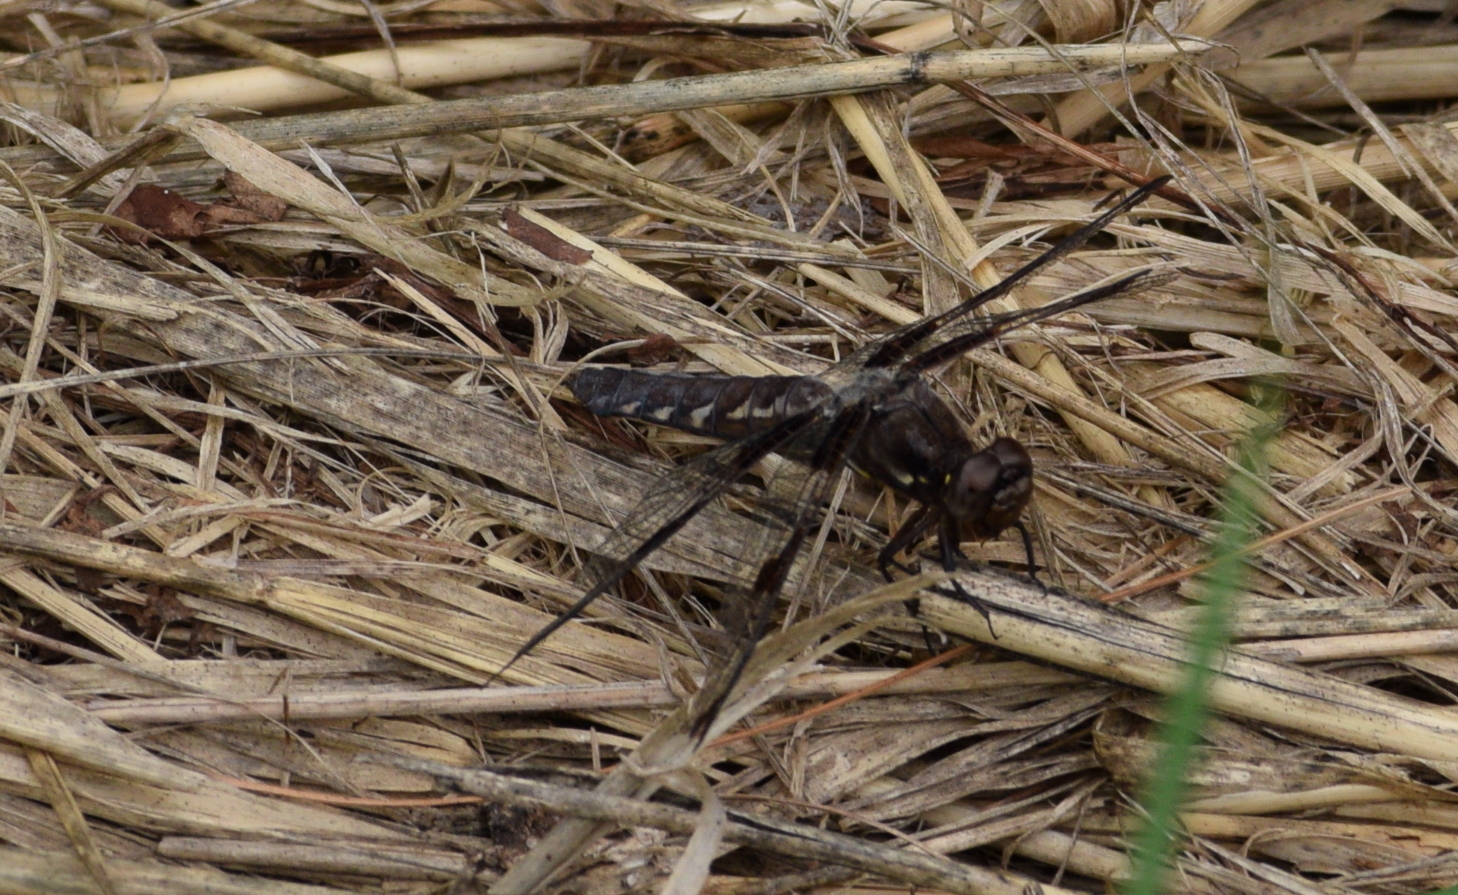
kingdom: Animalia
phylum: Arthropoda
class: Insecta
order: Odonata
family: Libellulidae
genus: Plathemis
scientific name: Plathemis lydia
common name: Common whitetail
